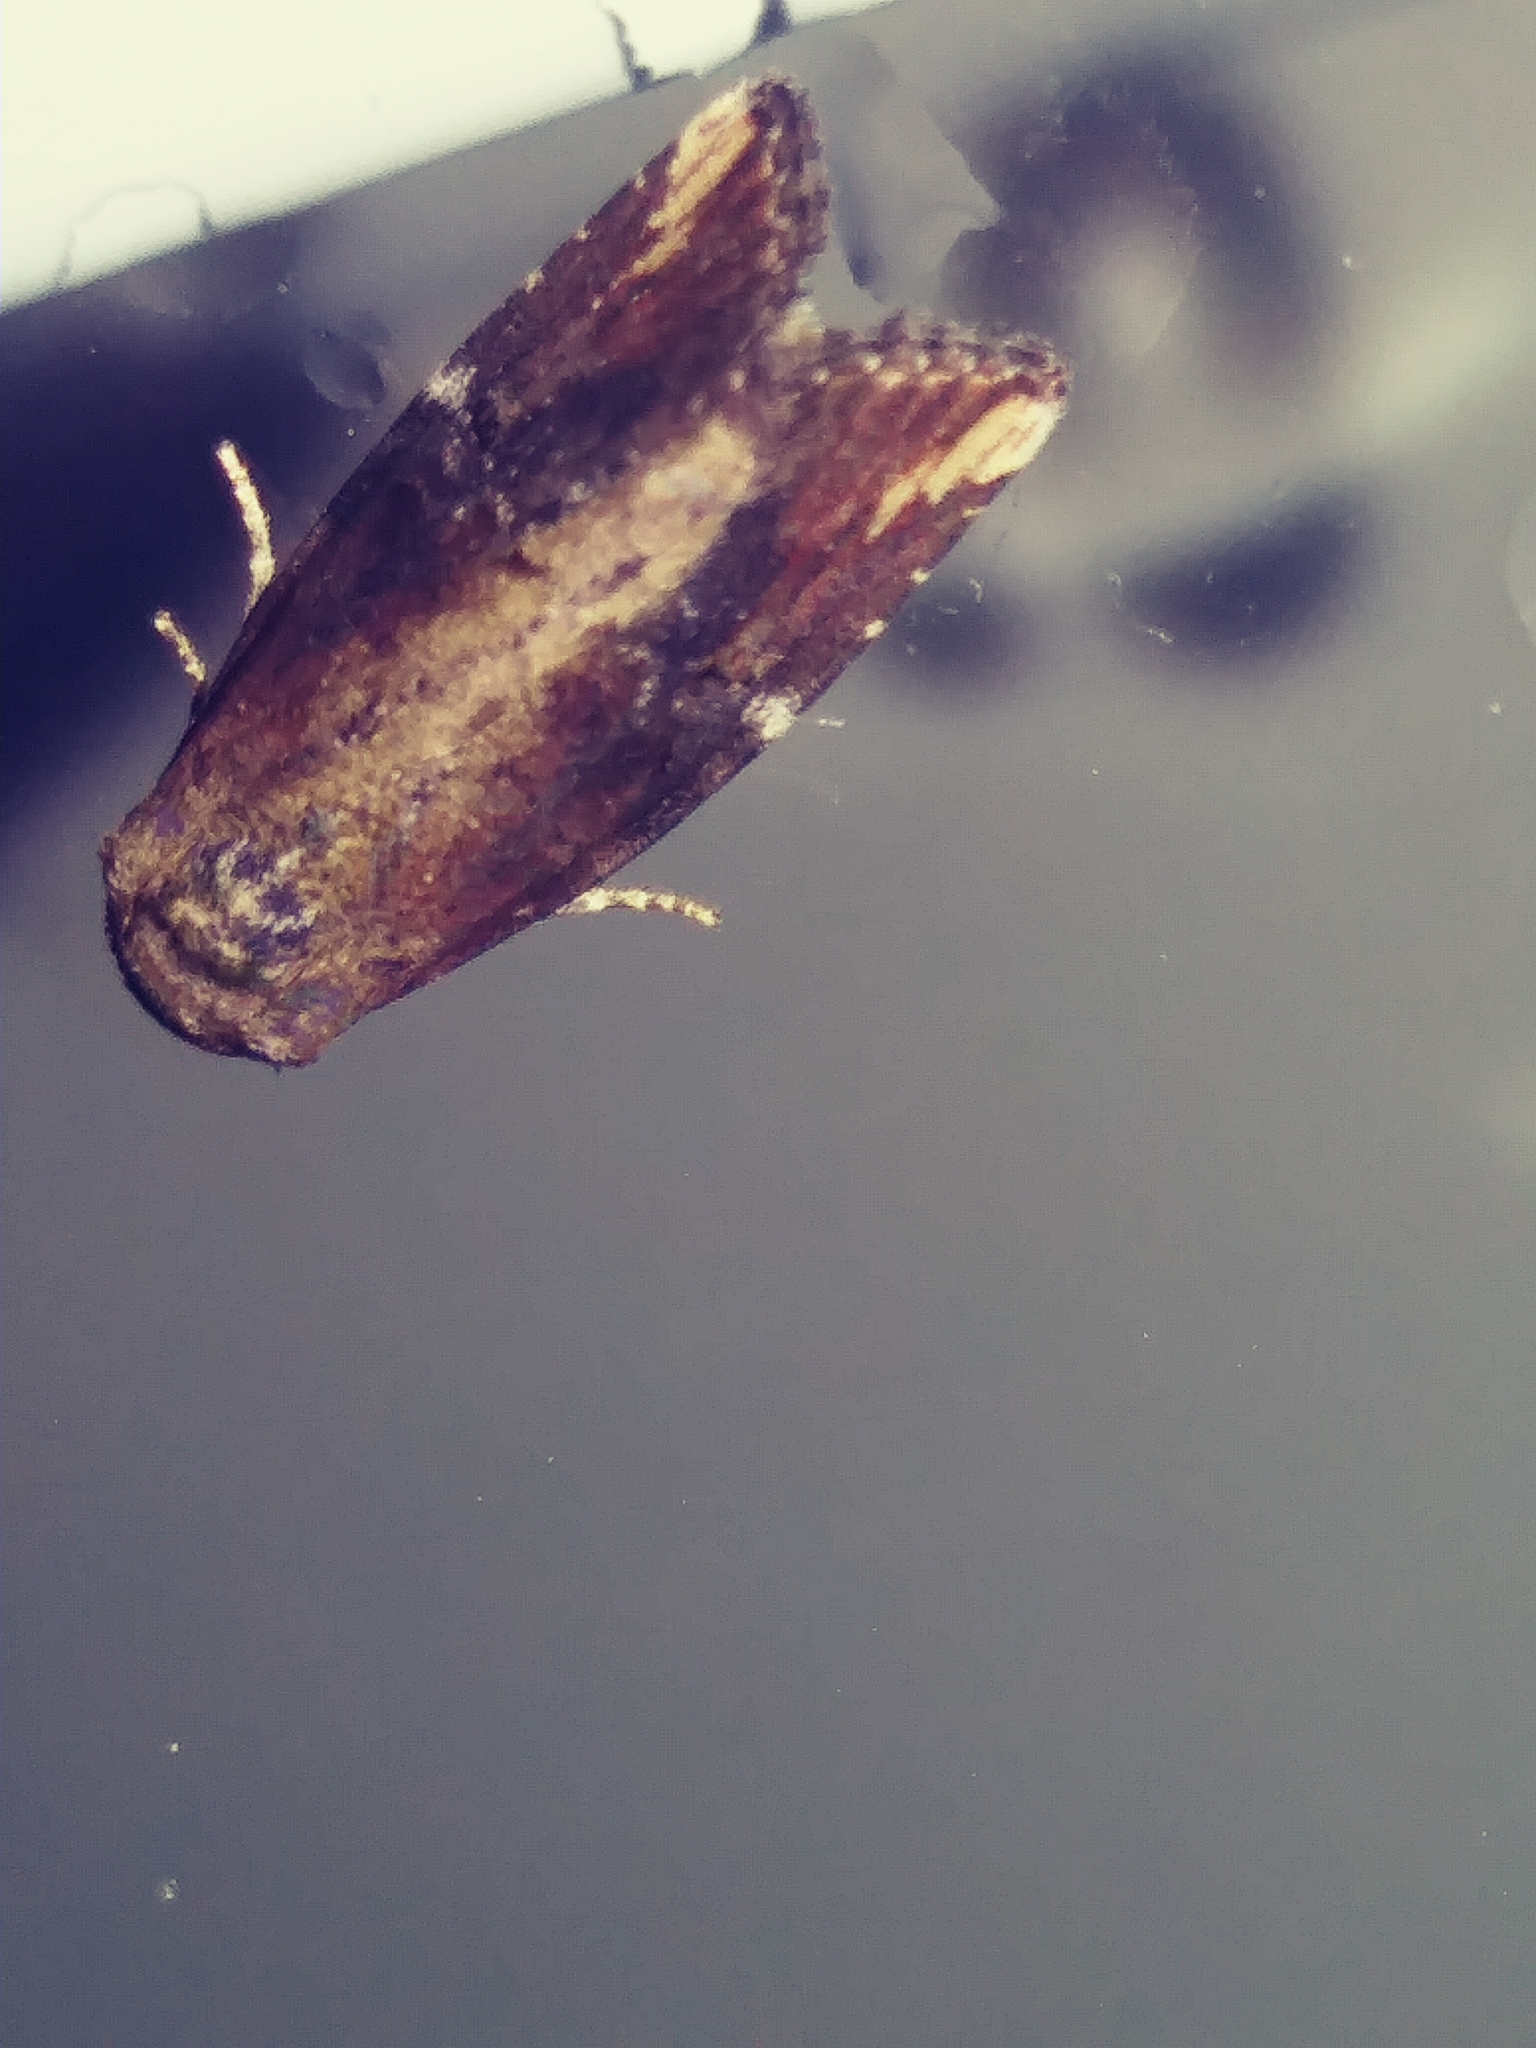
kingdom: Animalia
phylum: Arthropoda
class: Insecta
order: Lepidoptera
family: Noctuidae
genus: Magusa
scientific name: Magusa divaricata
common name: Orb narrow-winged moth
